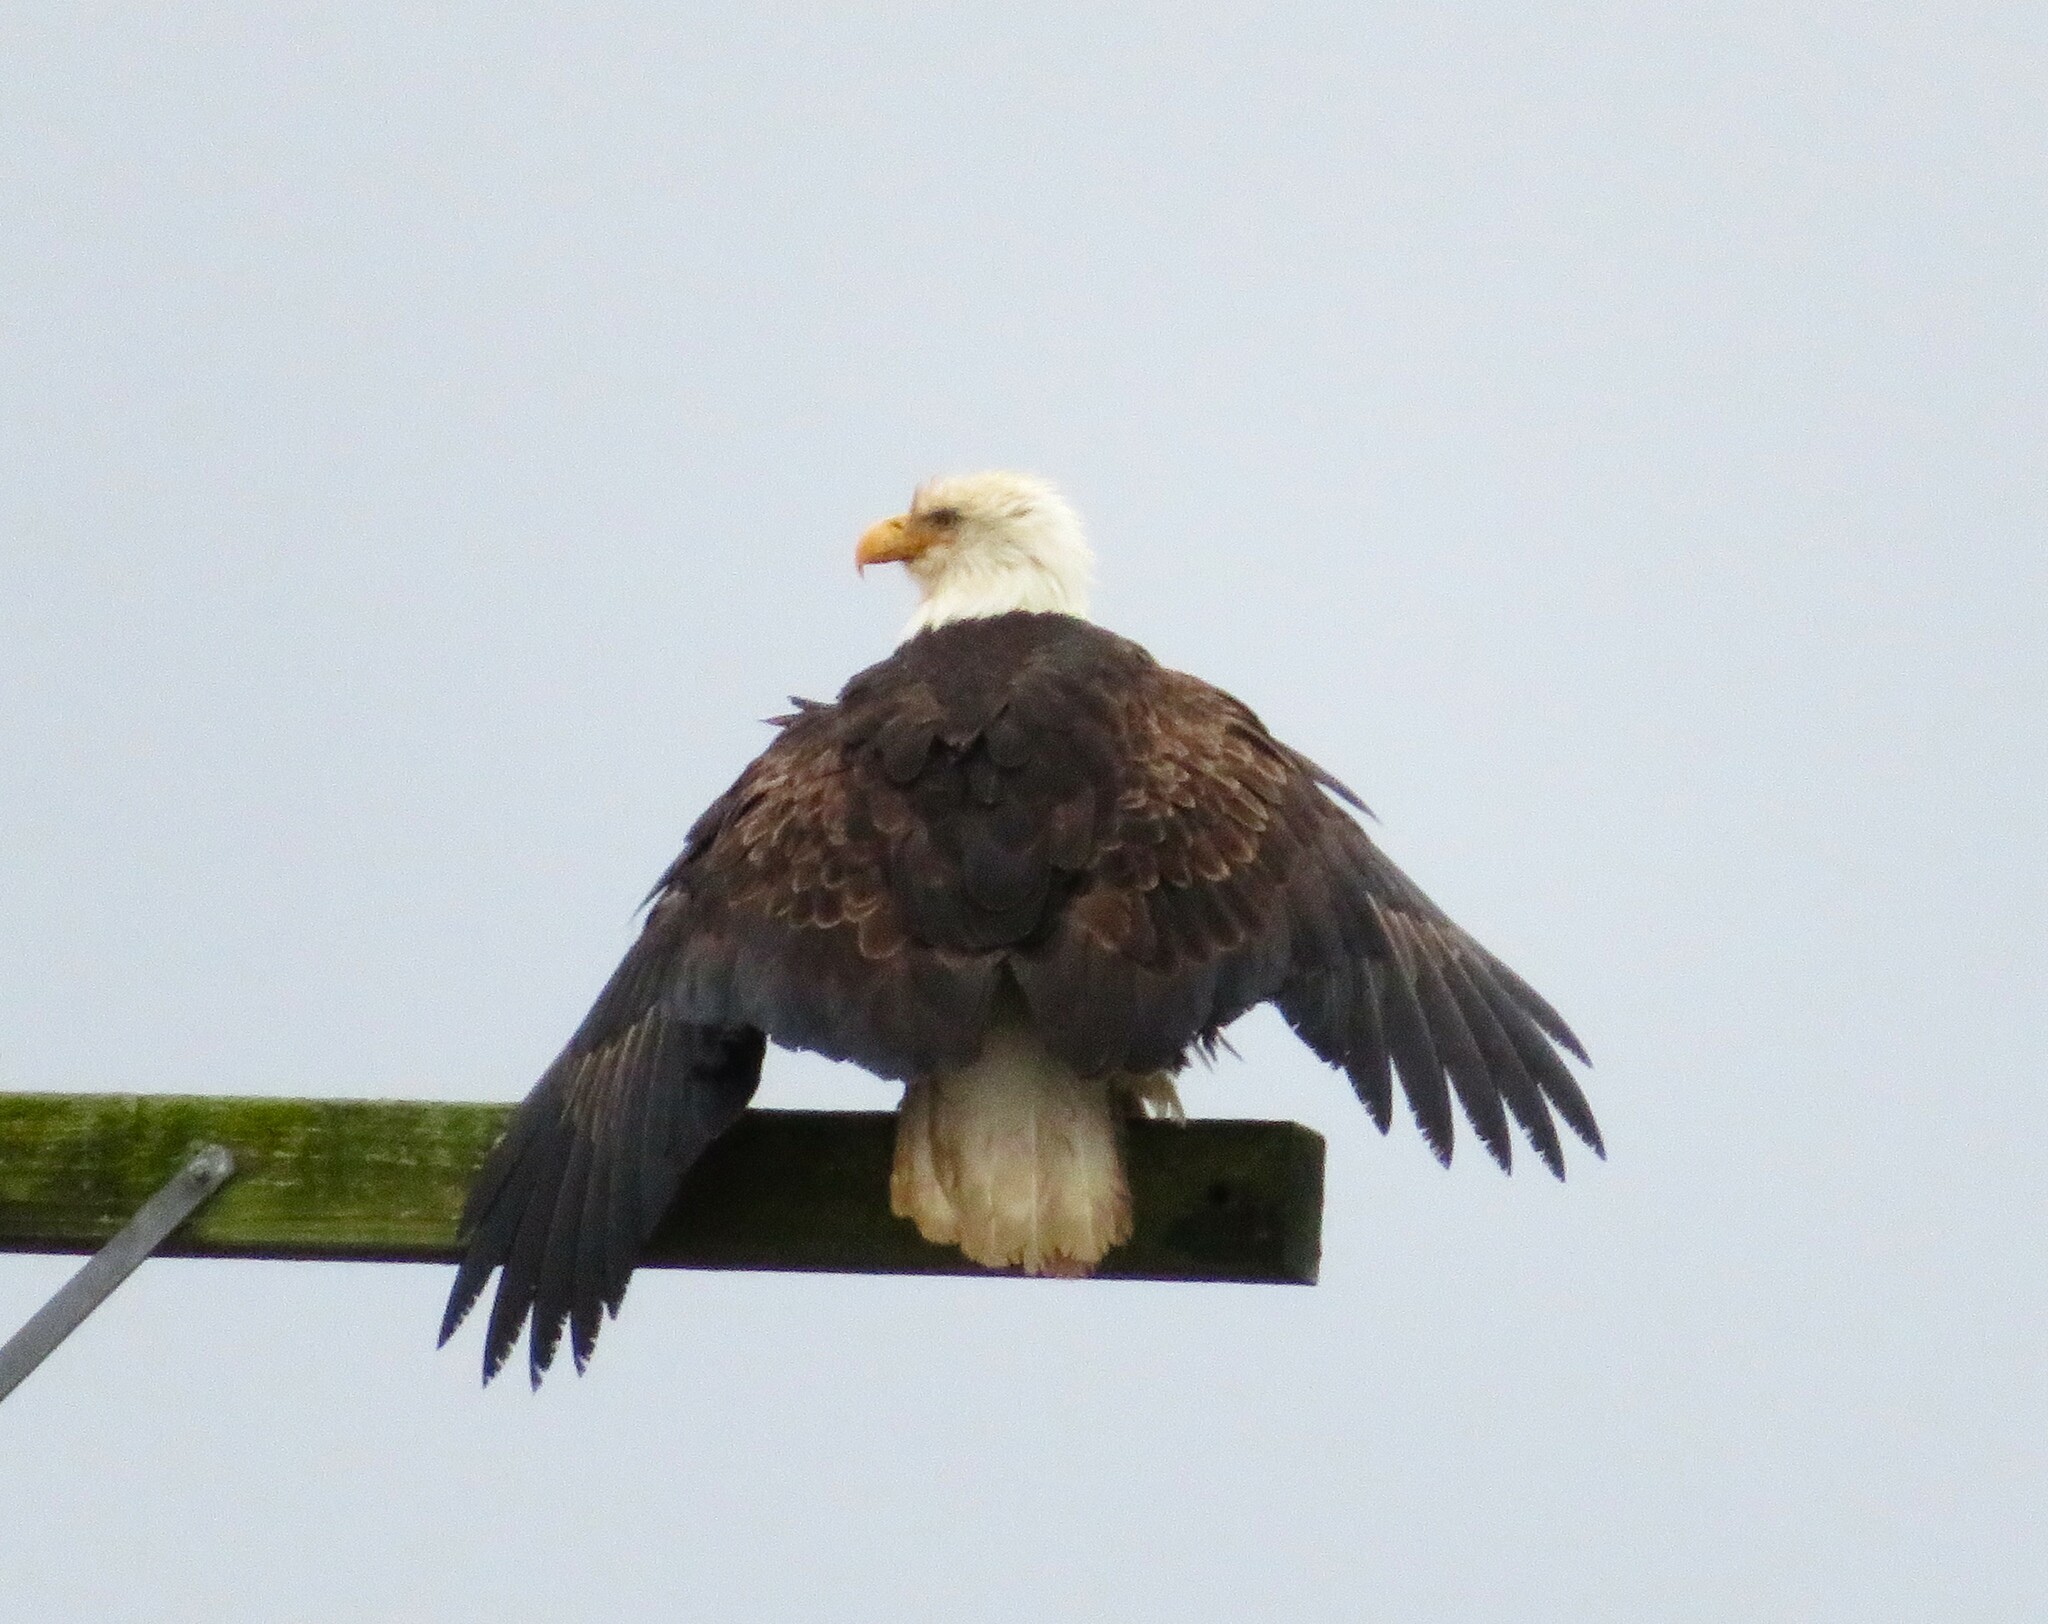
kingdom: Animalia
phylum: Chordata
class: Aves
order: Accipitriformes
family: Accipitridae
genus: Haliaeetus
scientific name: Haliaeetus leucocephalus
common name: Bald eagle
